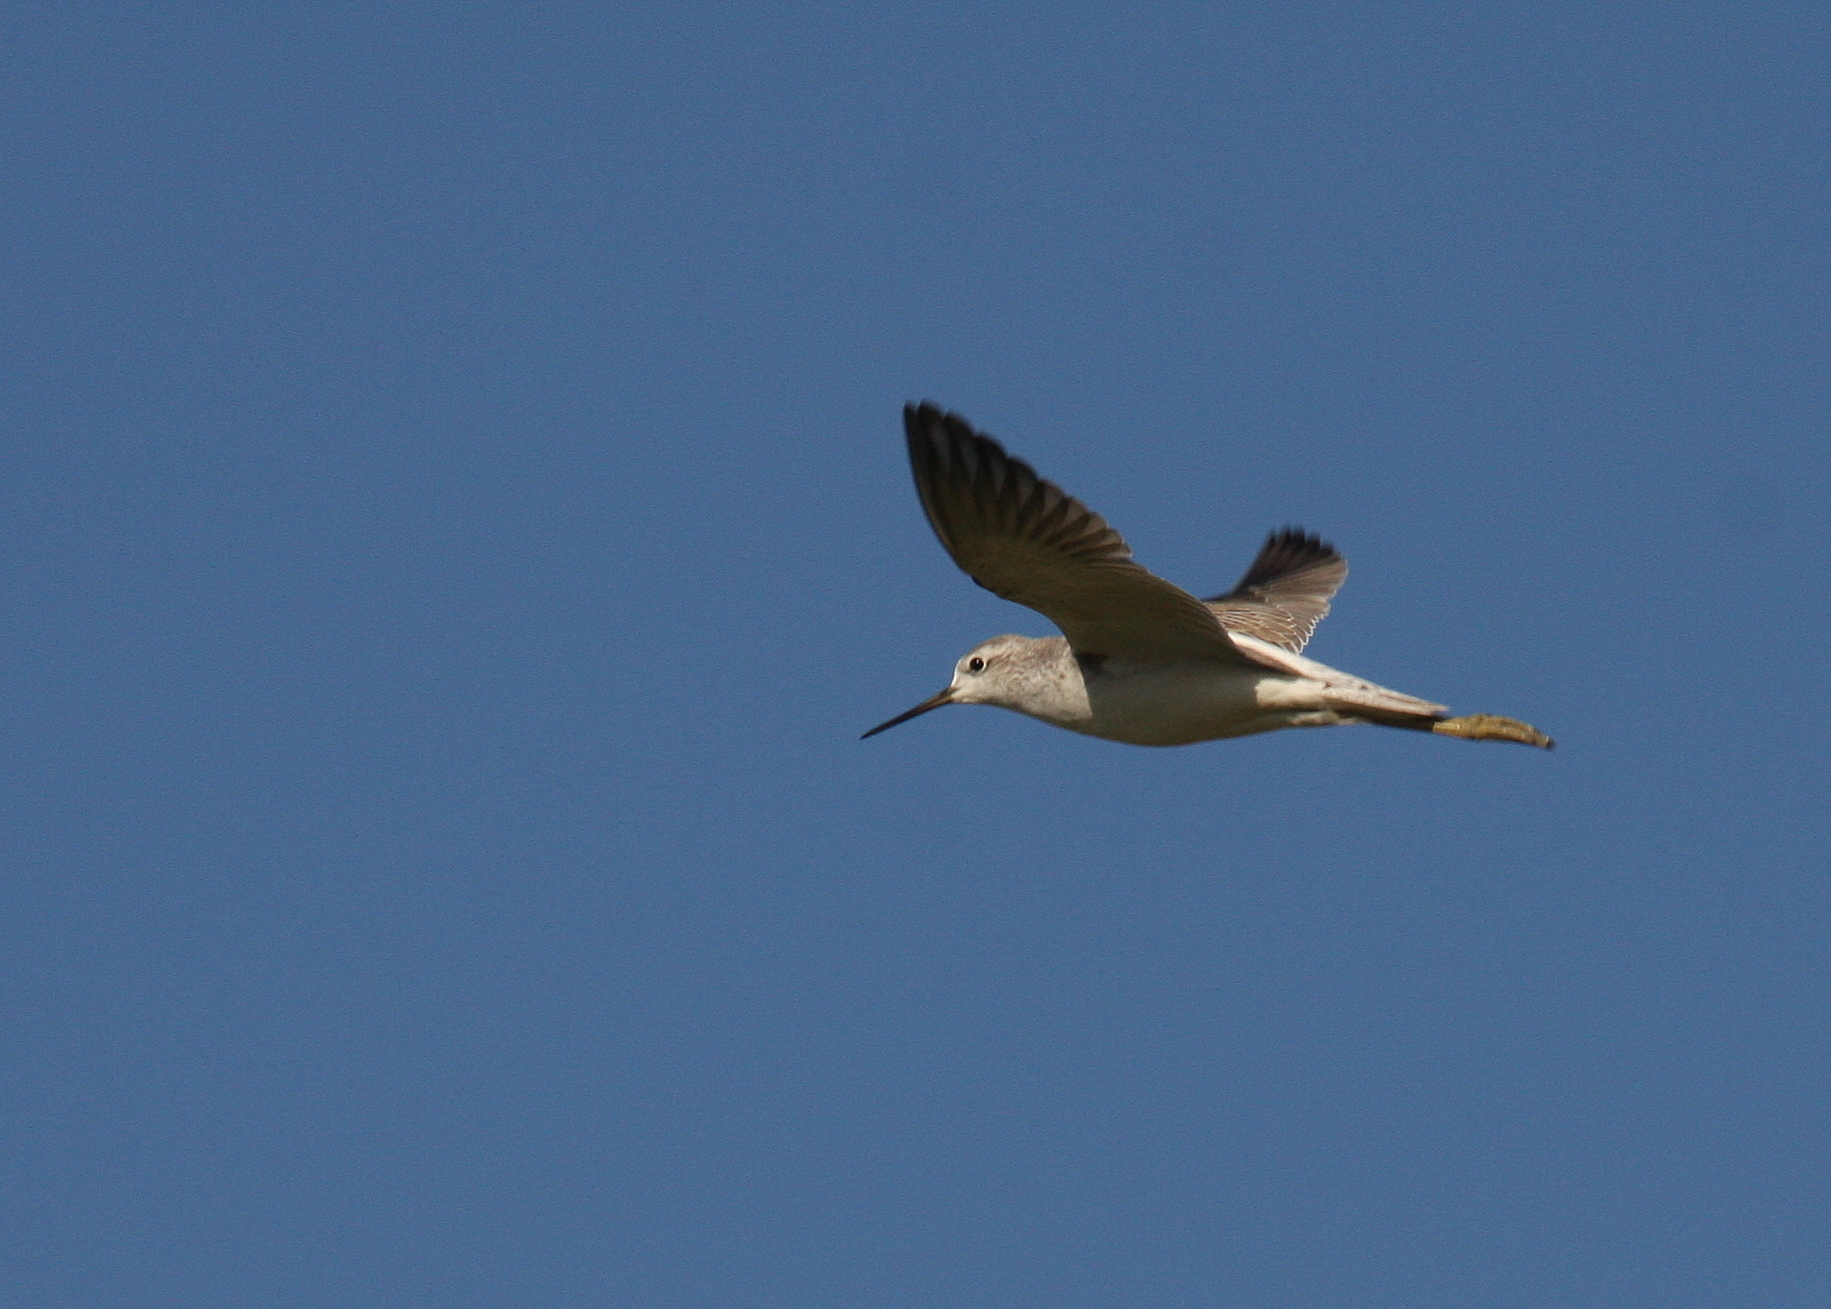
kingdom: Animalia
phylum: Chordata
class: Aves
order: Charadriiformes
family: Scolopacidae
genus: Tringa
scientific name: Tringa stagnatilis
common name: Marsh sandpiper
